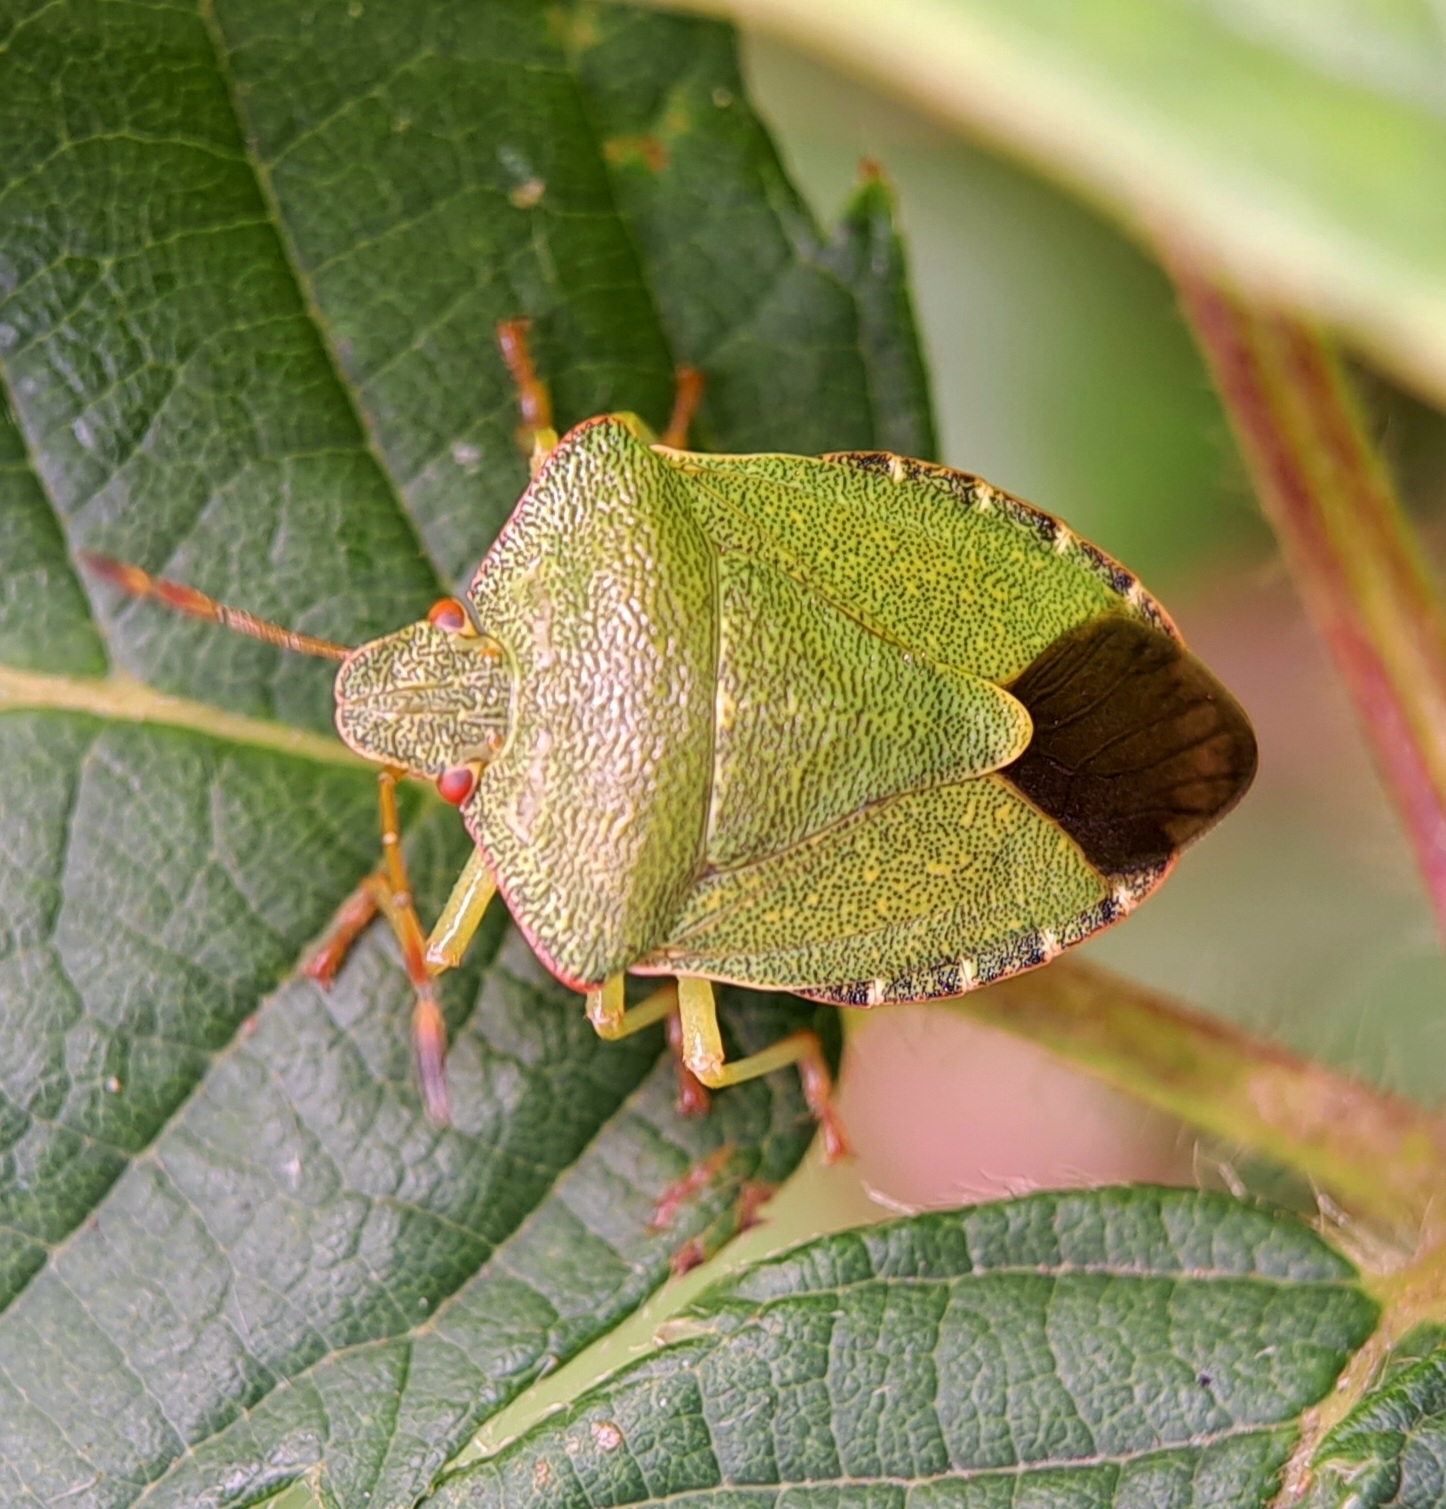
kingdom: Animalia
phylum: Arthropoda
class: Insecta
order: Hemiptera
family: Pentatomidae
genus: Palomena
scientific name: Palomena prasina
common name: Green shieldbug
